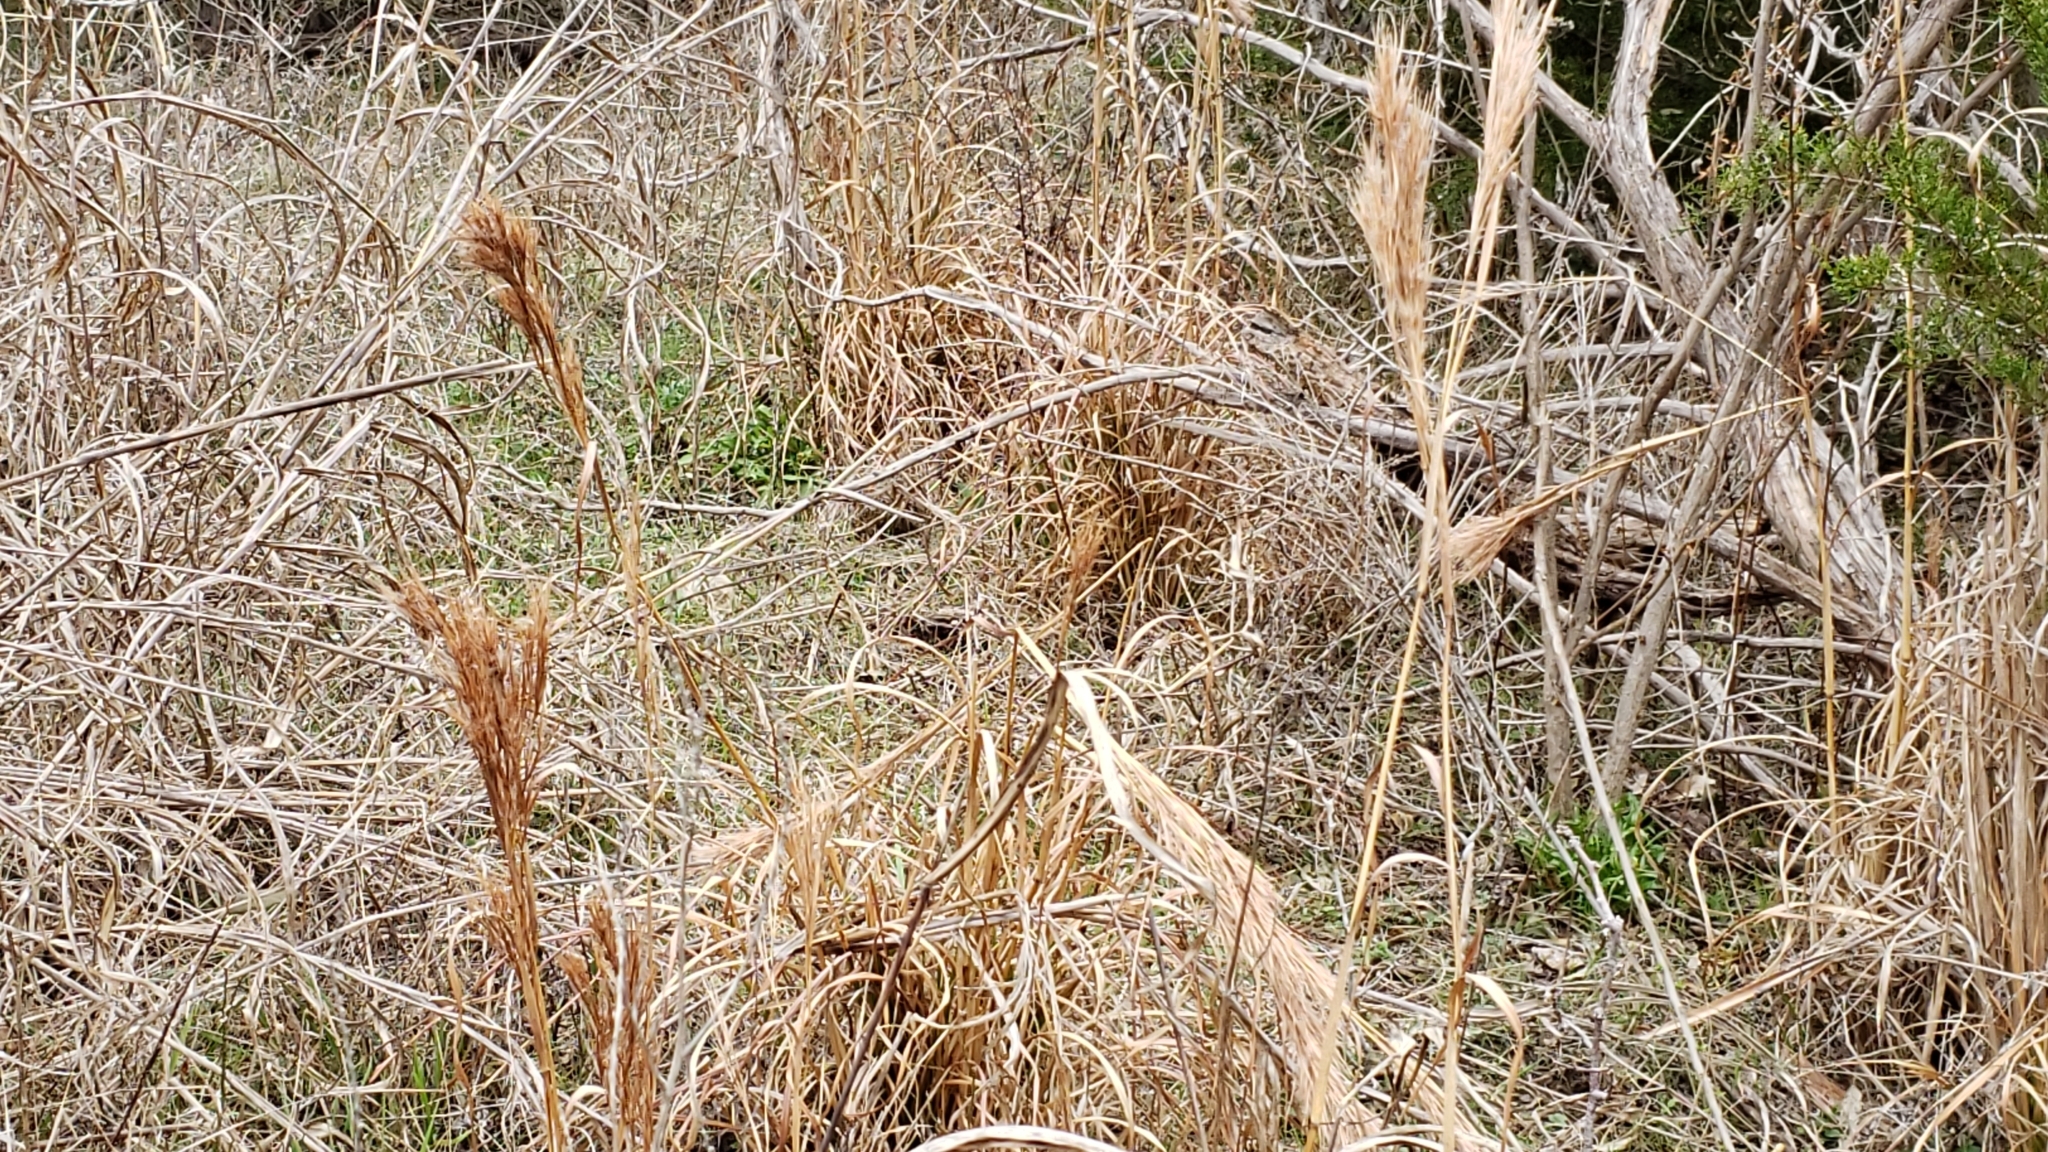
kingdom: Plantae
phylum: Tracheophyta
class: Liliopsida
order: Poales
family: Poaceae
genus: Andropogon
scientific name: Andropogon tenuispatheus
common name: Bushy bluestem
